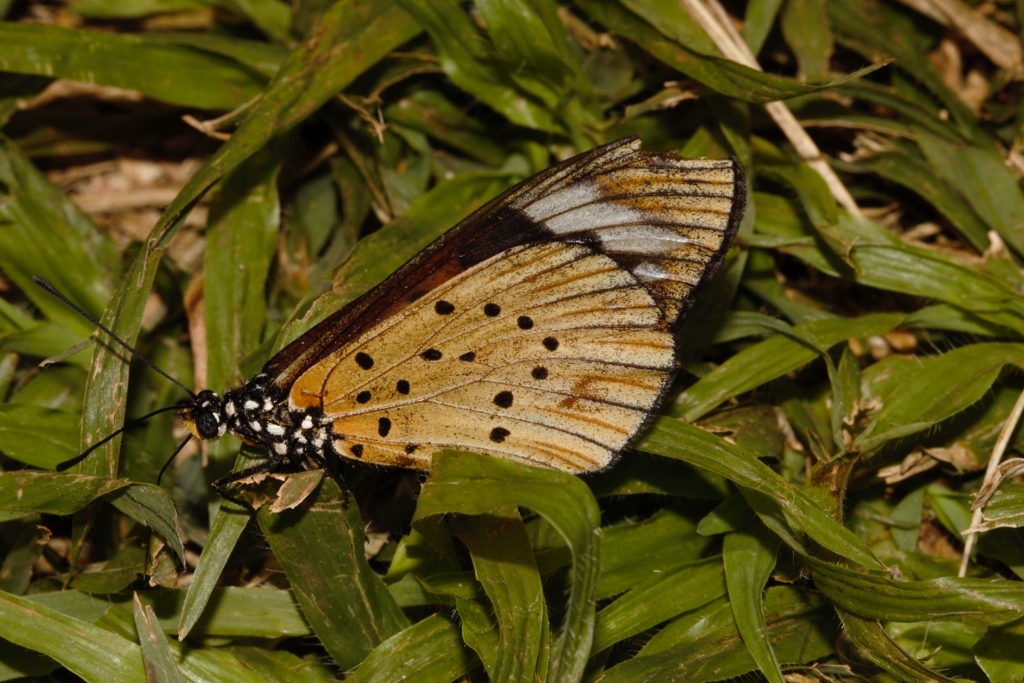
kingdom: Animalia
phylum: Arthropoda
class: Insecta
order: Lepidoptera
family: Nymphalidae
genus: Acraea
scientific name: Acraea Telchinia encedon
